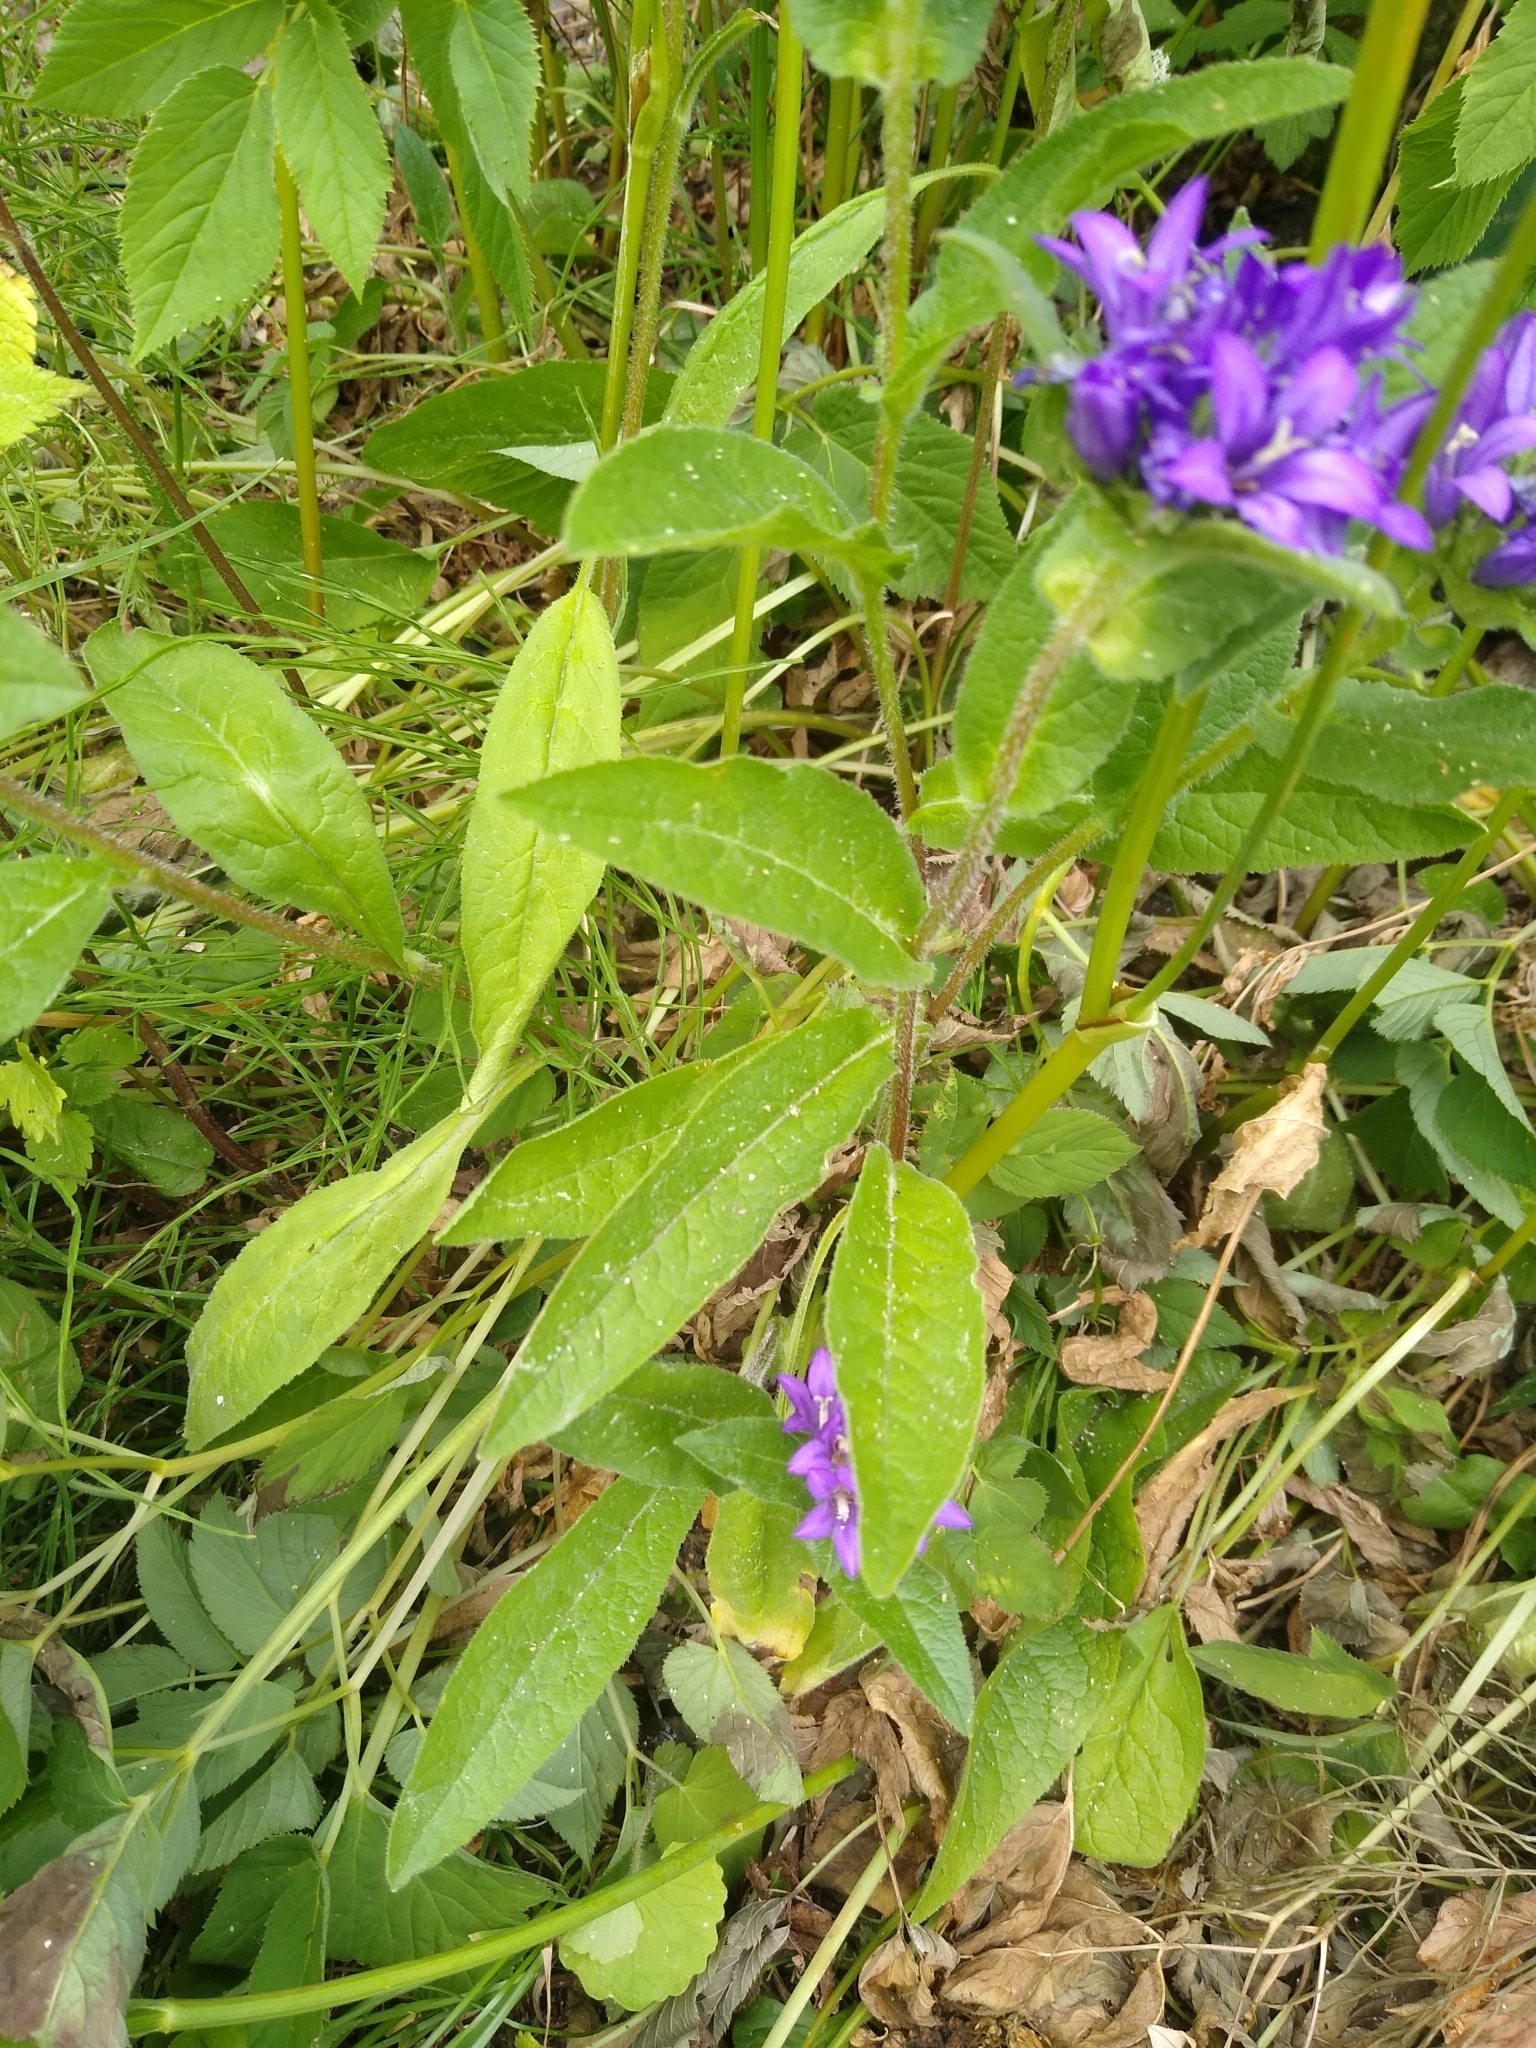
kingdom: Plantae
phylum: Tracheophyta
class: Magnoliopsida
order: Asterales
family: Campanulaceae
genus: Campanula
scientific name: Campanula glomerata
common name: Clustered bellflower
